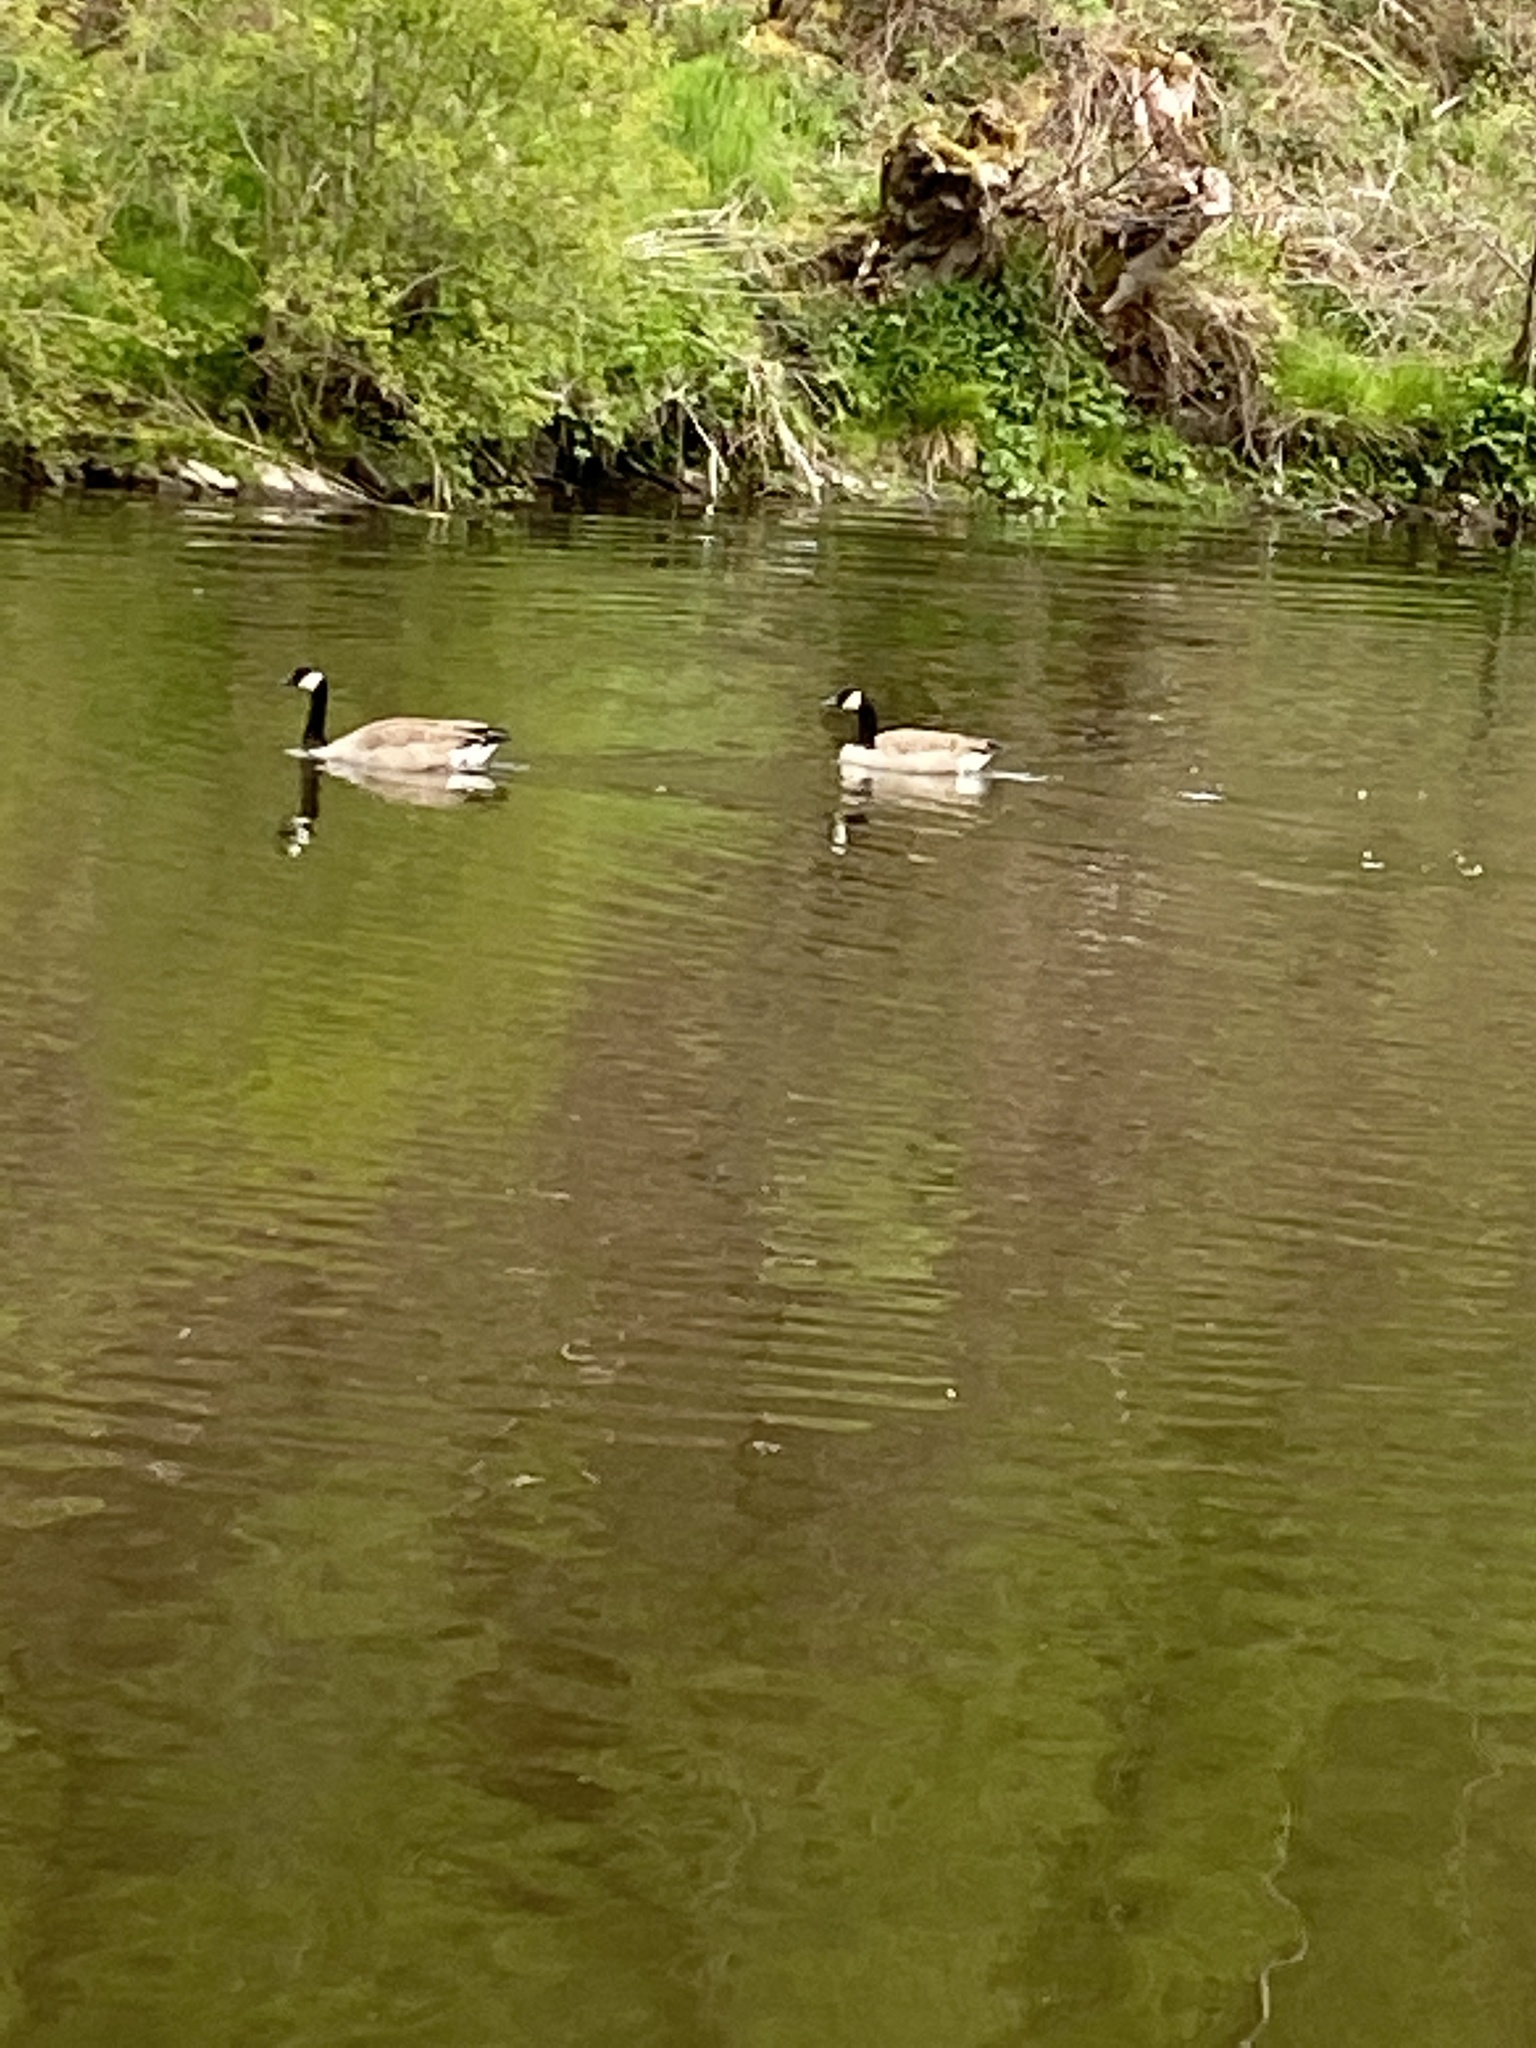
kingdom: Animalia
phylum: Chordata
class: Aves
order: Anseriformes
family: Anatidae
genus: Branta
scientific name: Branta canadensis
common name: Canada goose
